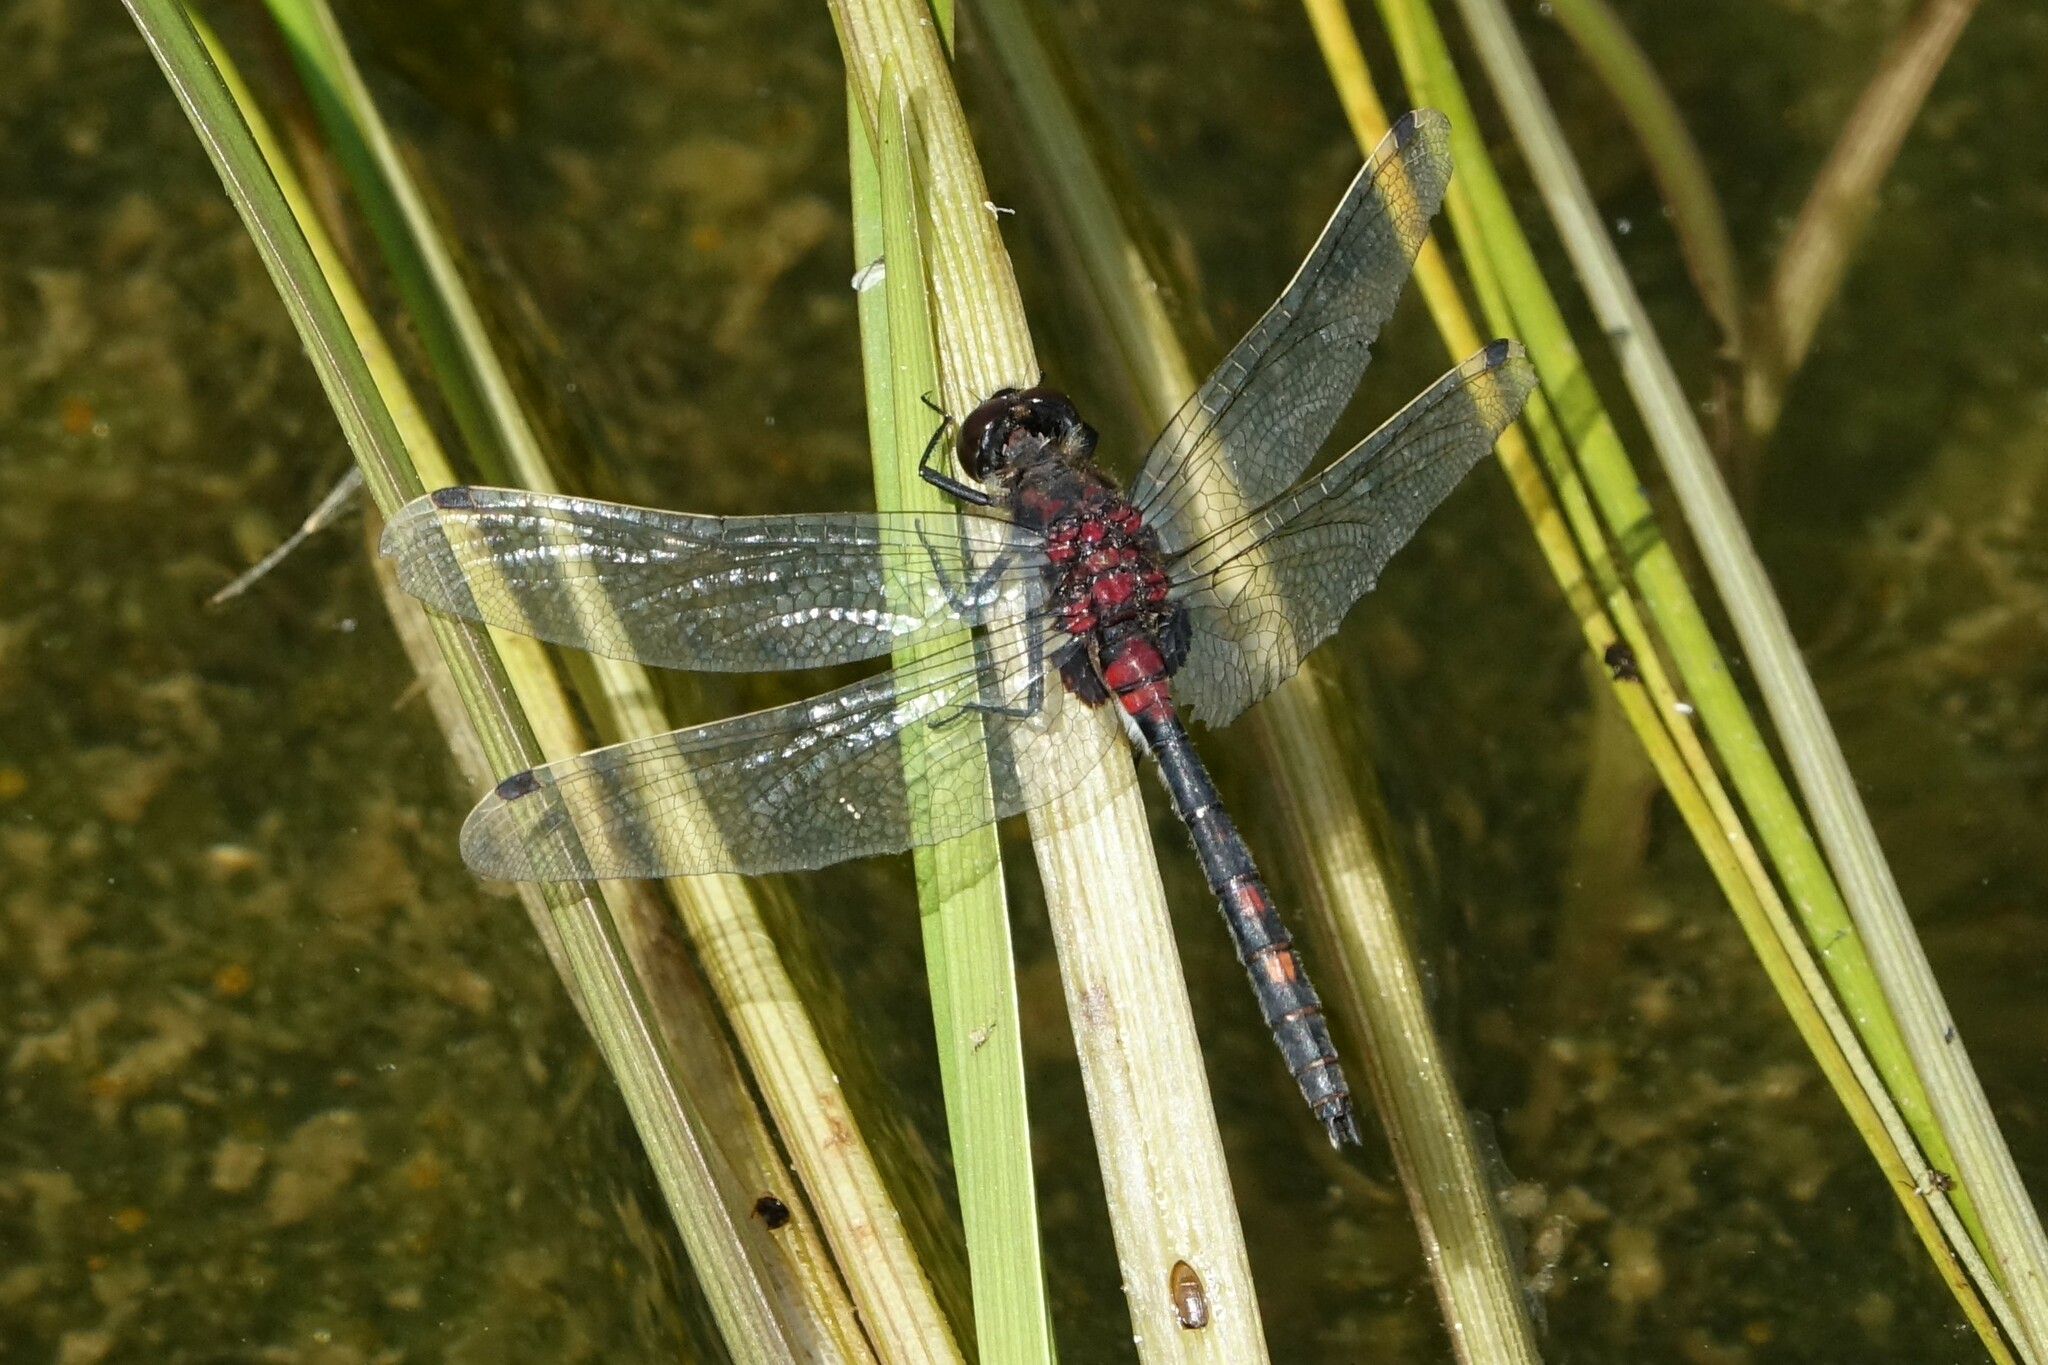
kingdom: Animalia
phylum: Arthropoda
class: Insecta
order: Odonata
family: Libellulidae
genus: Leucorrhinia
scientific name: Leucorrhinia dubia
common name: White-faced darter
